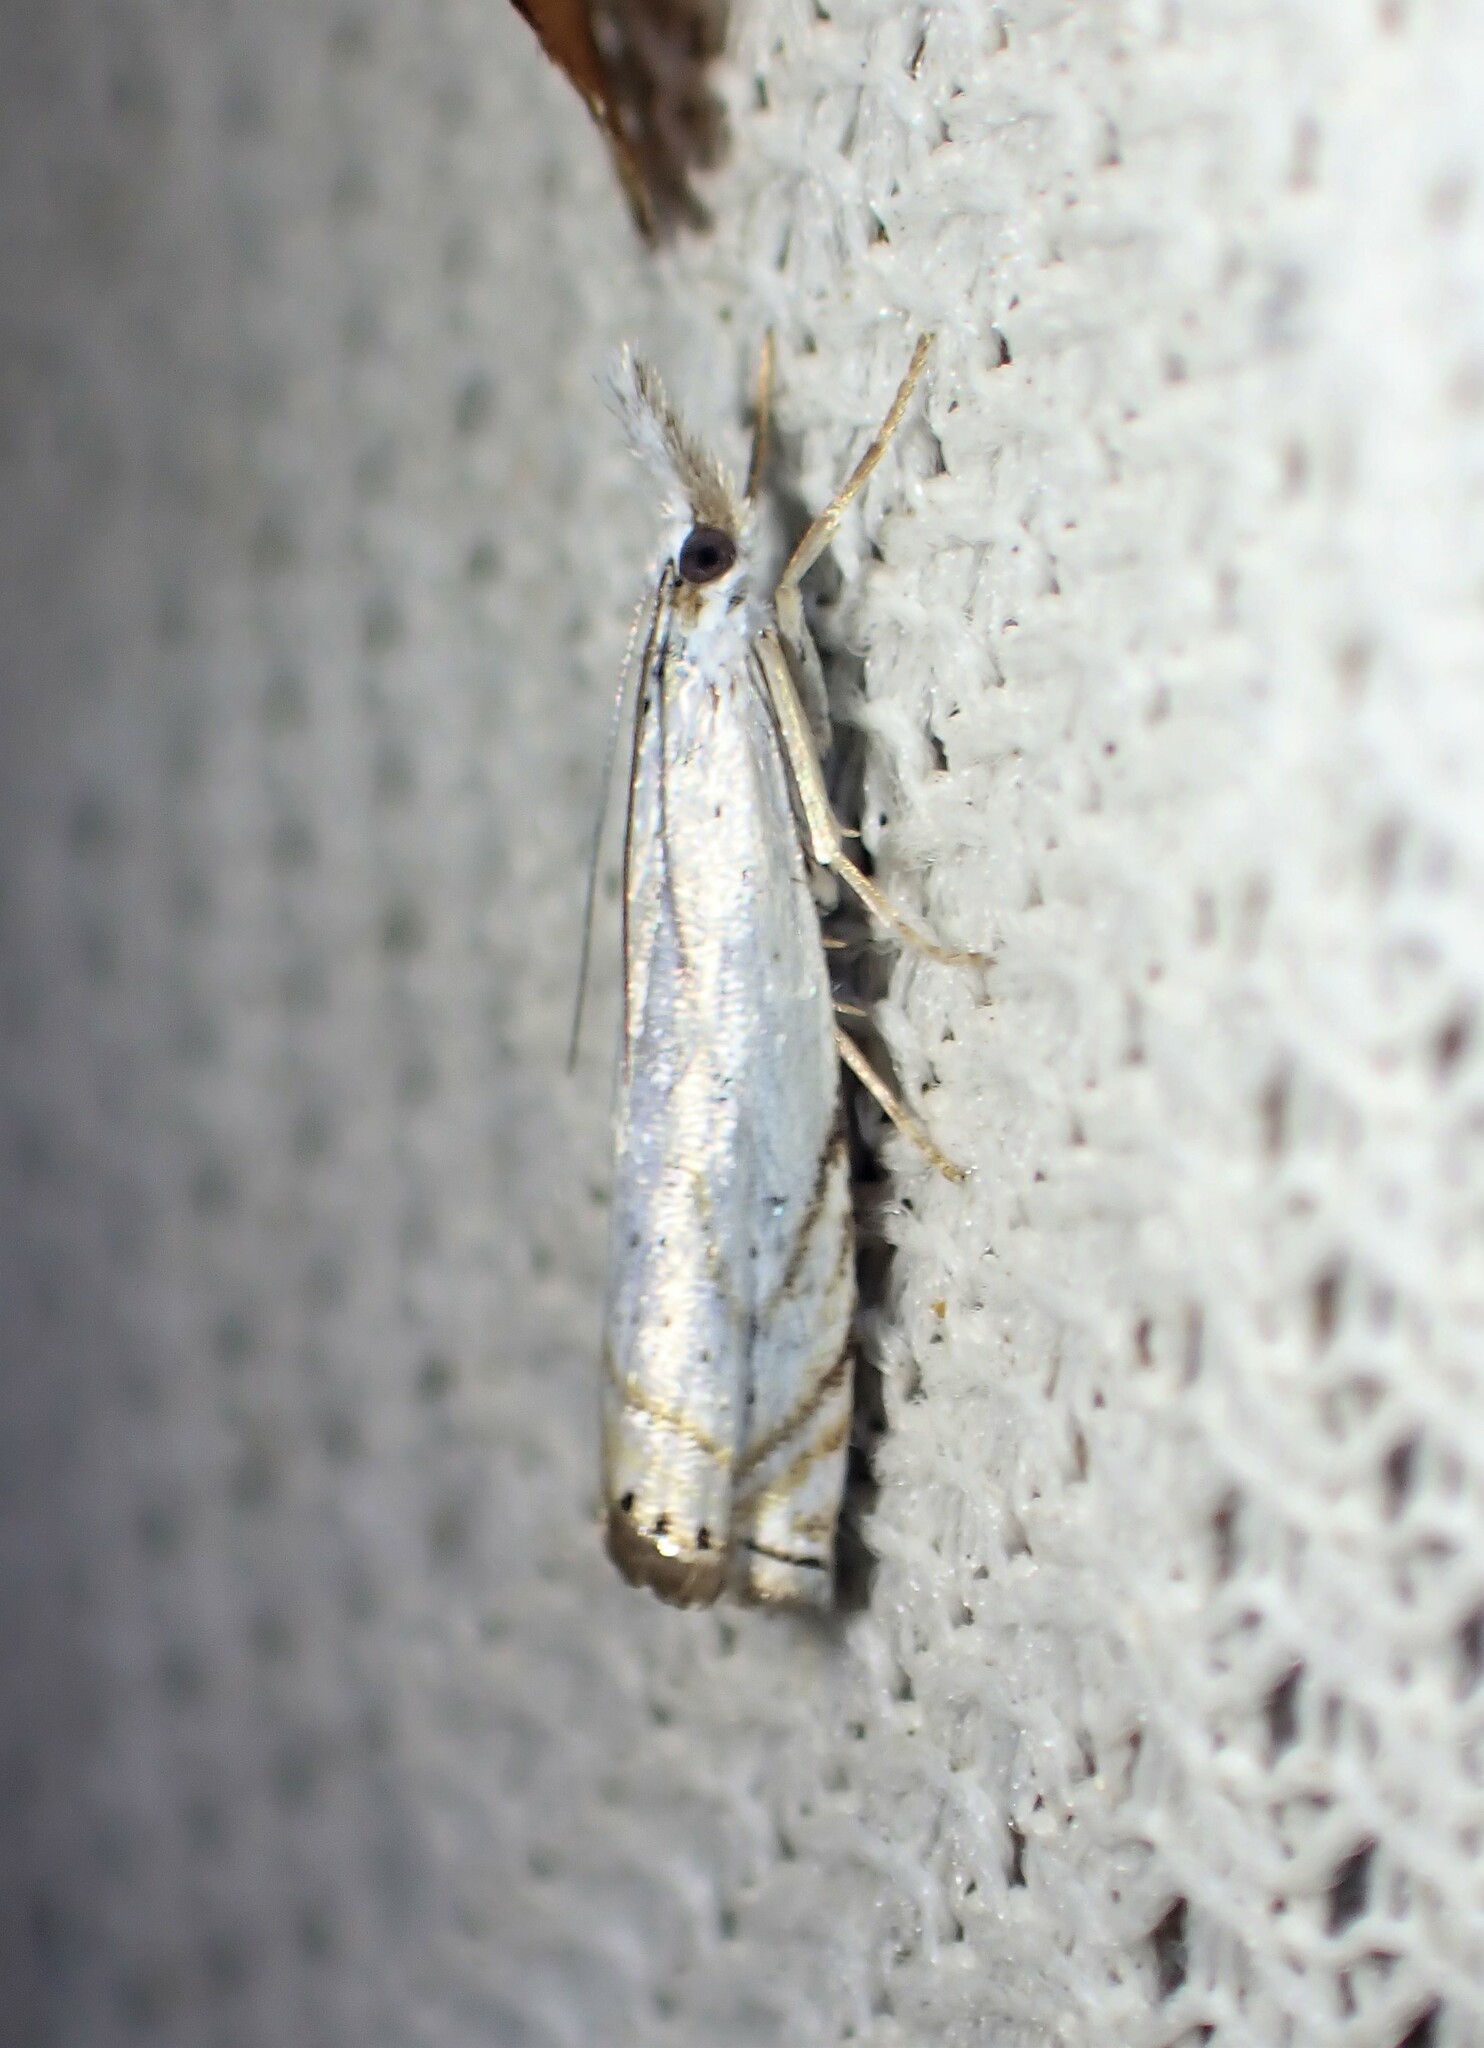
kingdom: Animalia
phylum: Arthropoda
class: Insecta
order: Lepidoptera
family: Crambidae
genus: Crambus
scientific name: Crambus albellus
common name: Small white grass-veneer
